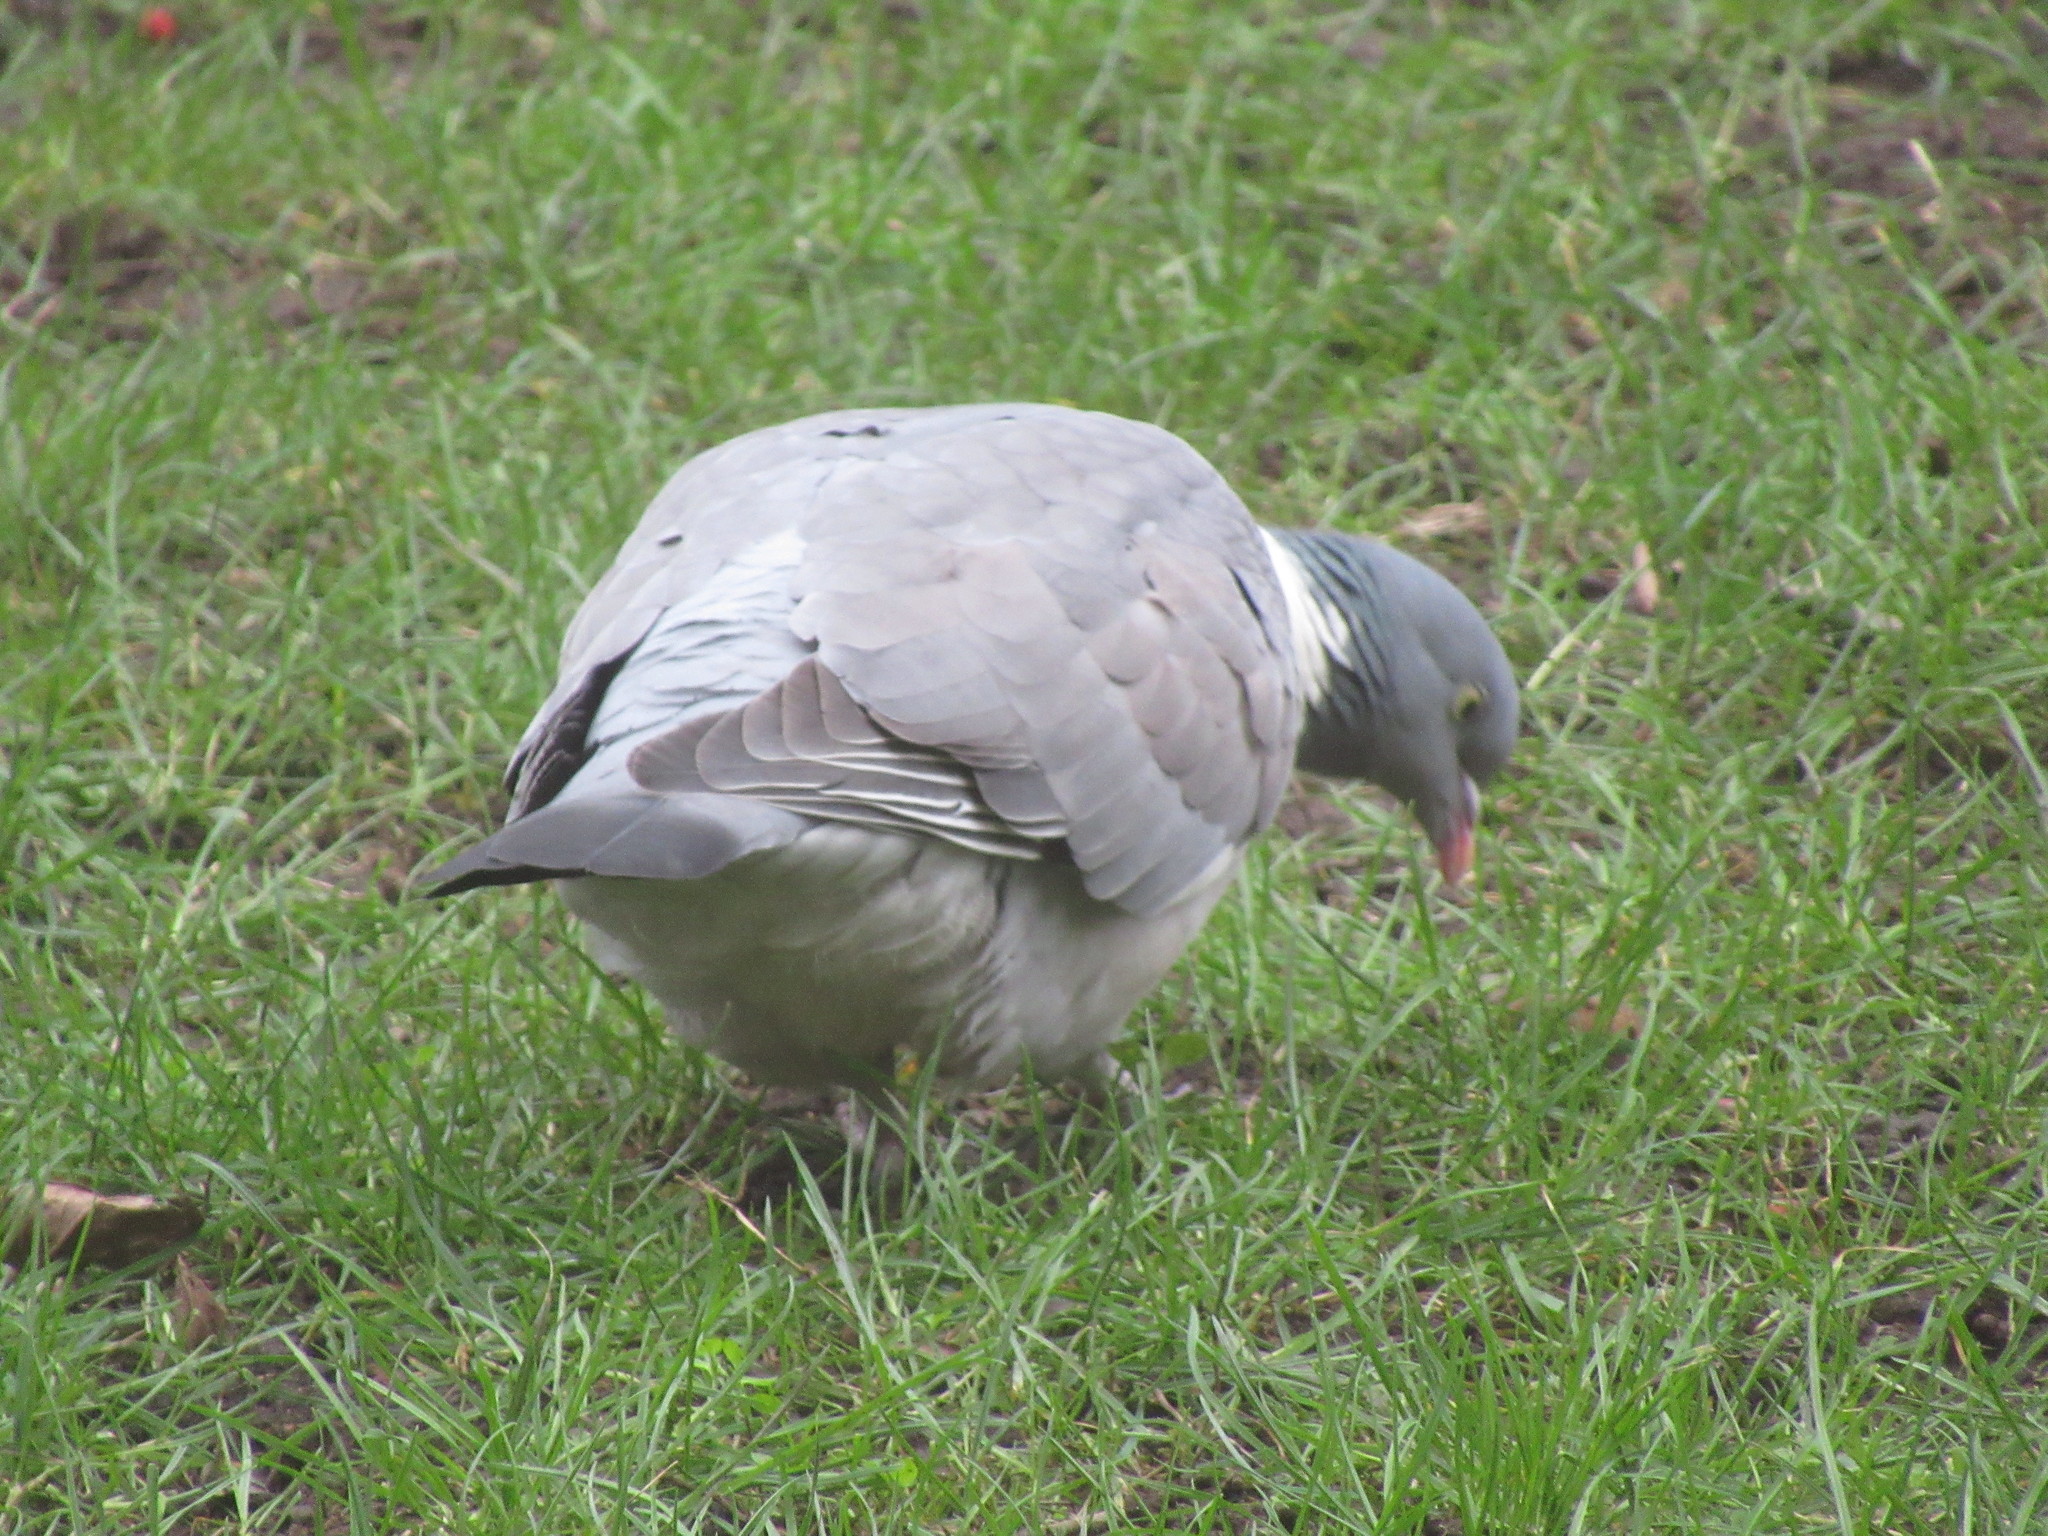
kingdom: Animalia
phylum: Chordata
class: Aves
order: Columbiformes
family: Columbidae
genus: Columba
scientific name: Columba palumbus
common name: Common wood pigeon
